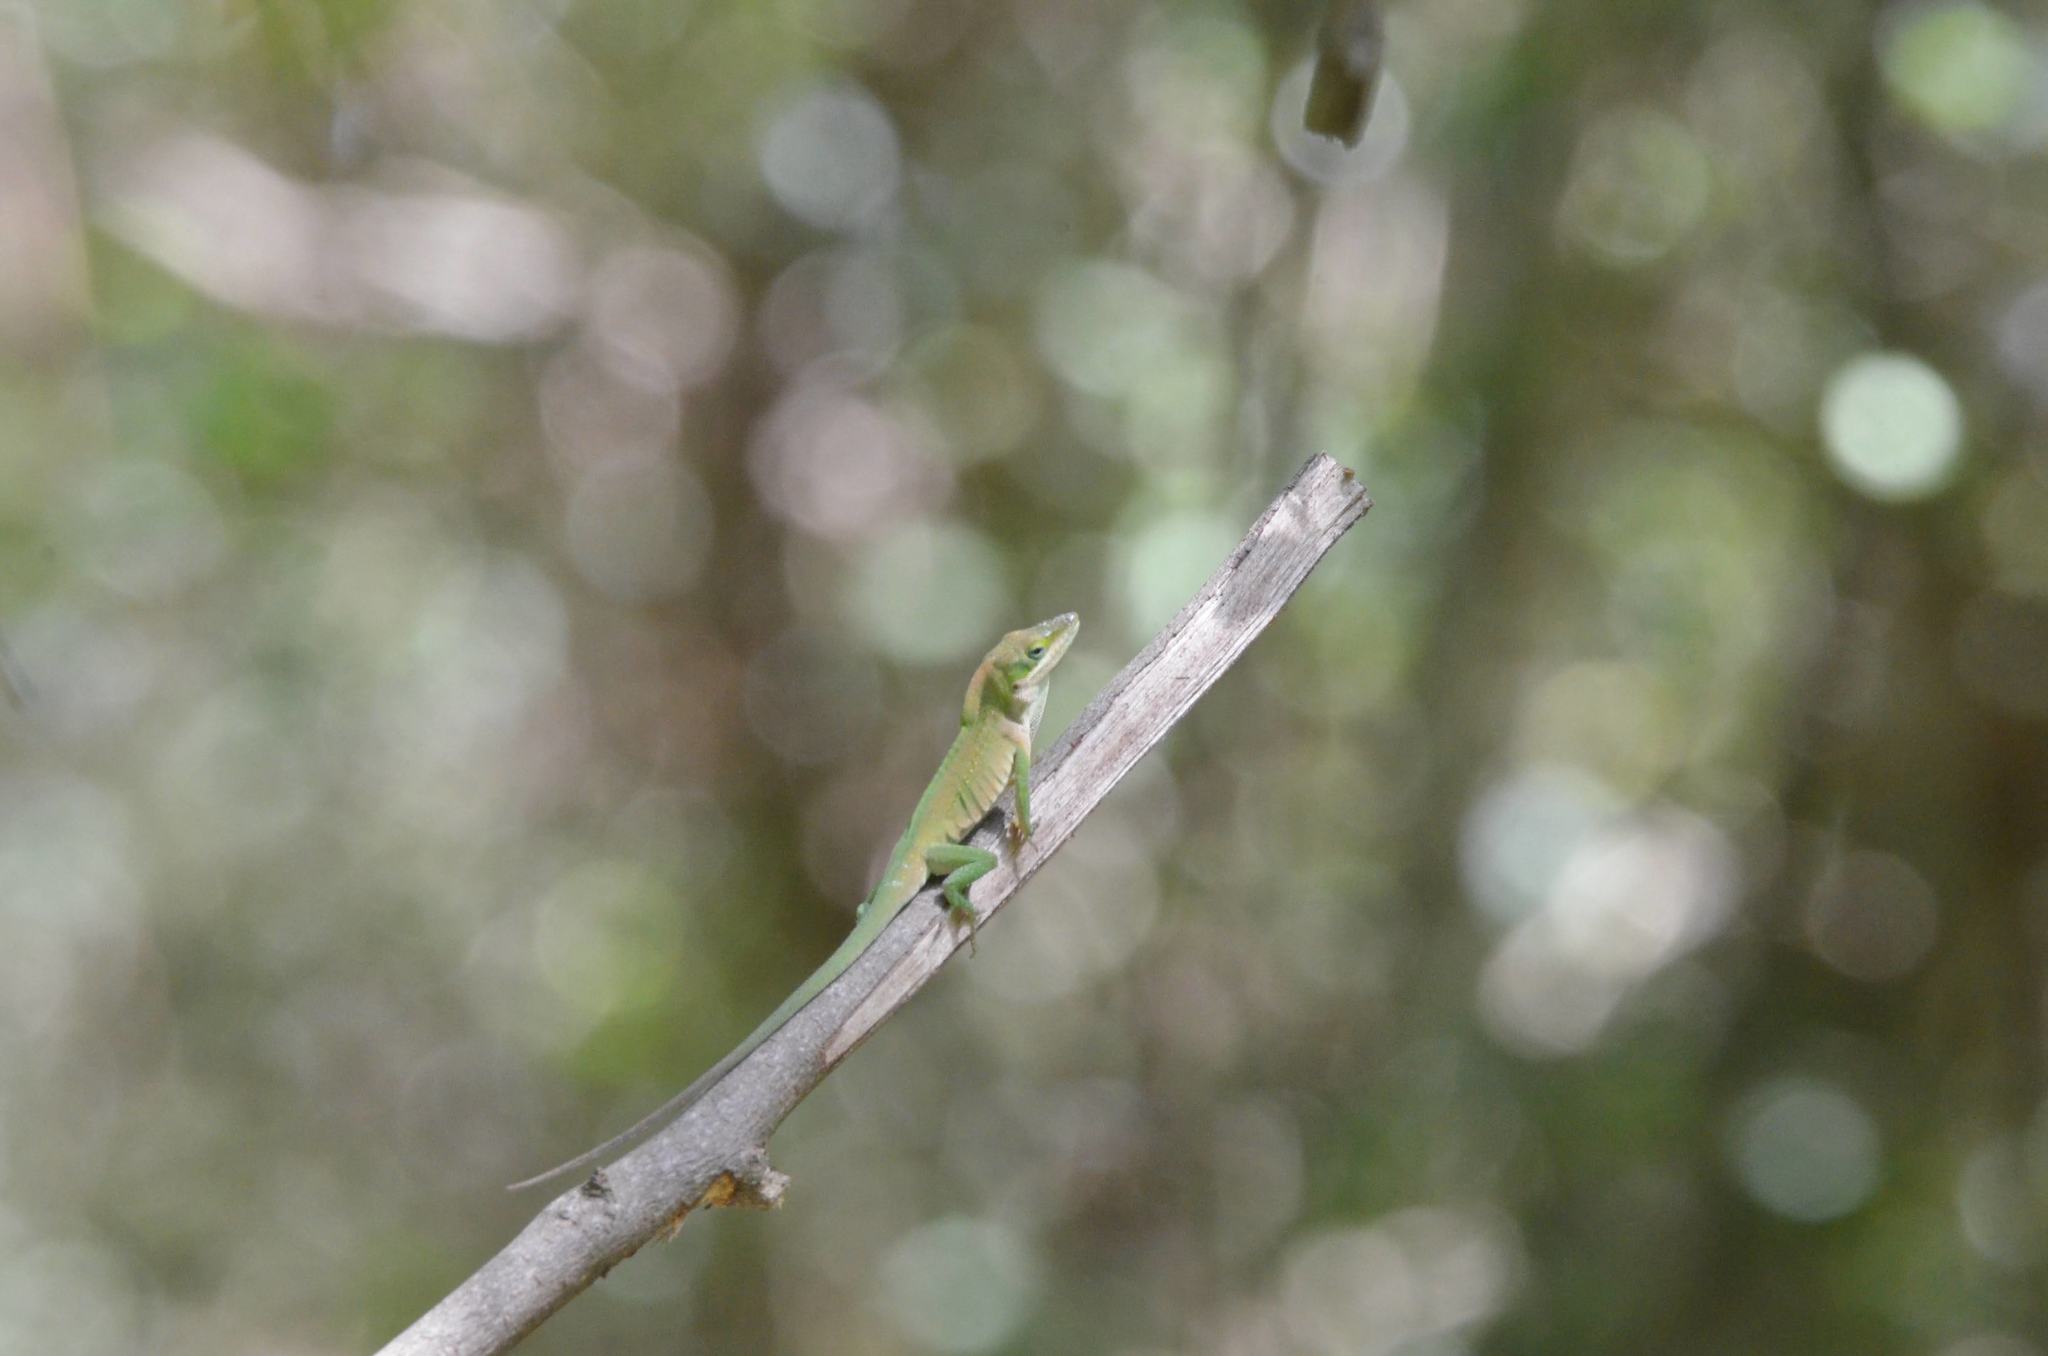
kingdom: Animalia
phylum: Chordata
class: Squamata
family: Dactyloidae
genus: Anolis
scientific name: Anolis carolinensis
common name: Green anole
